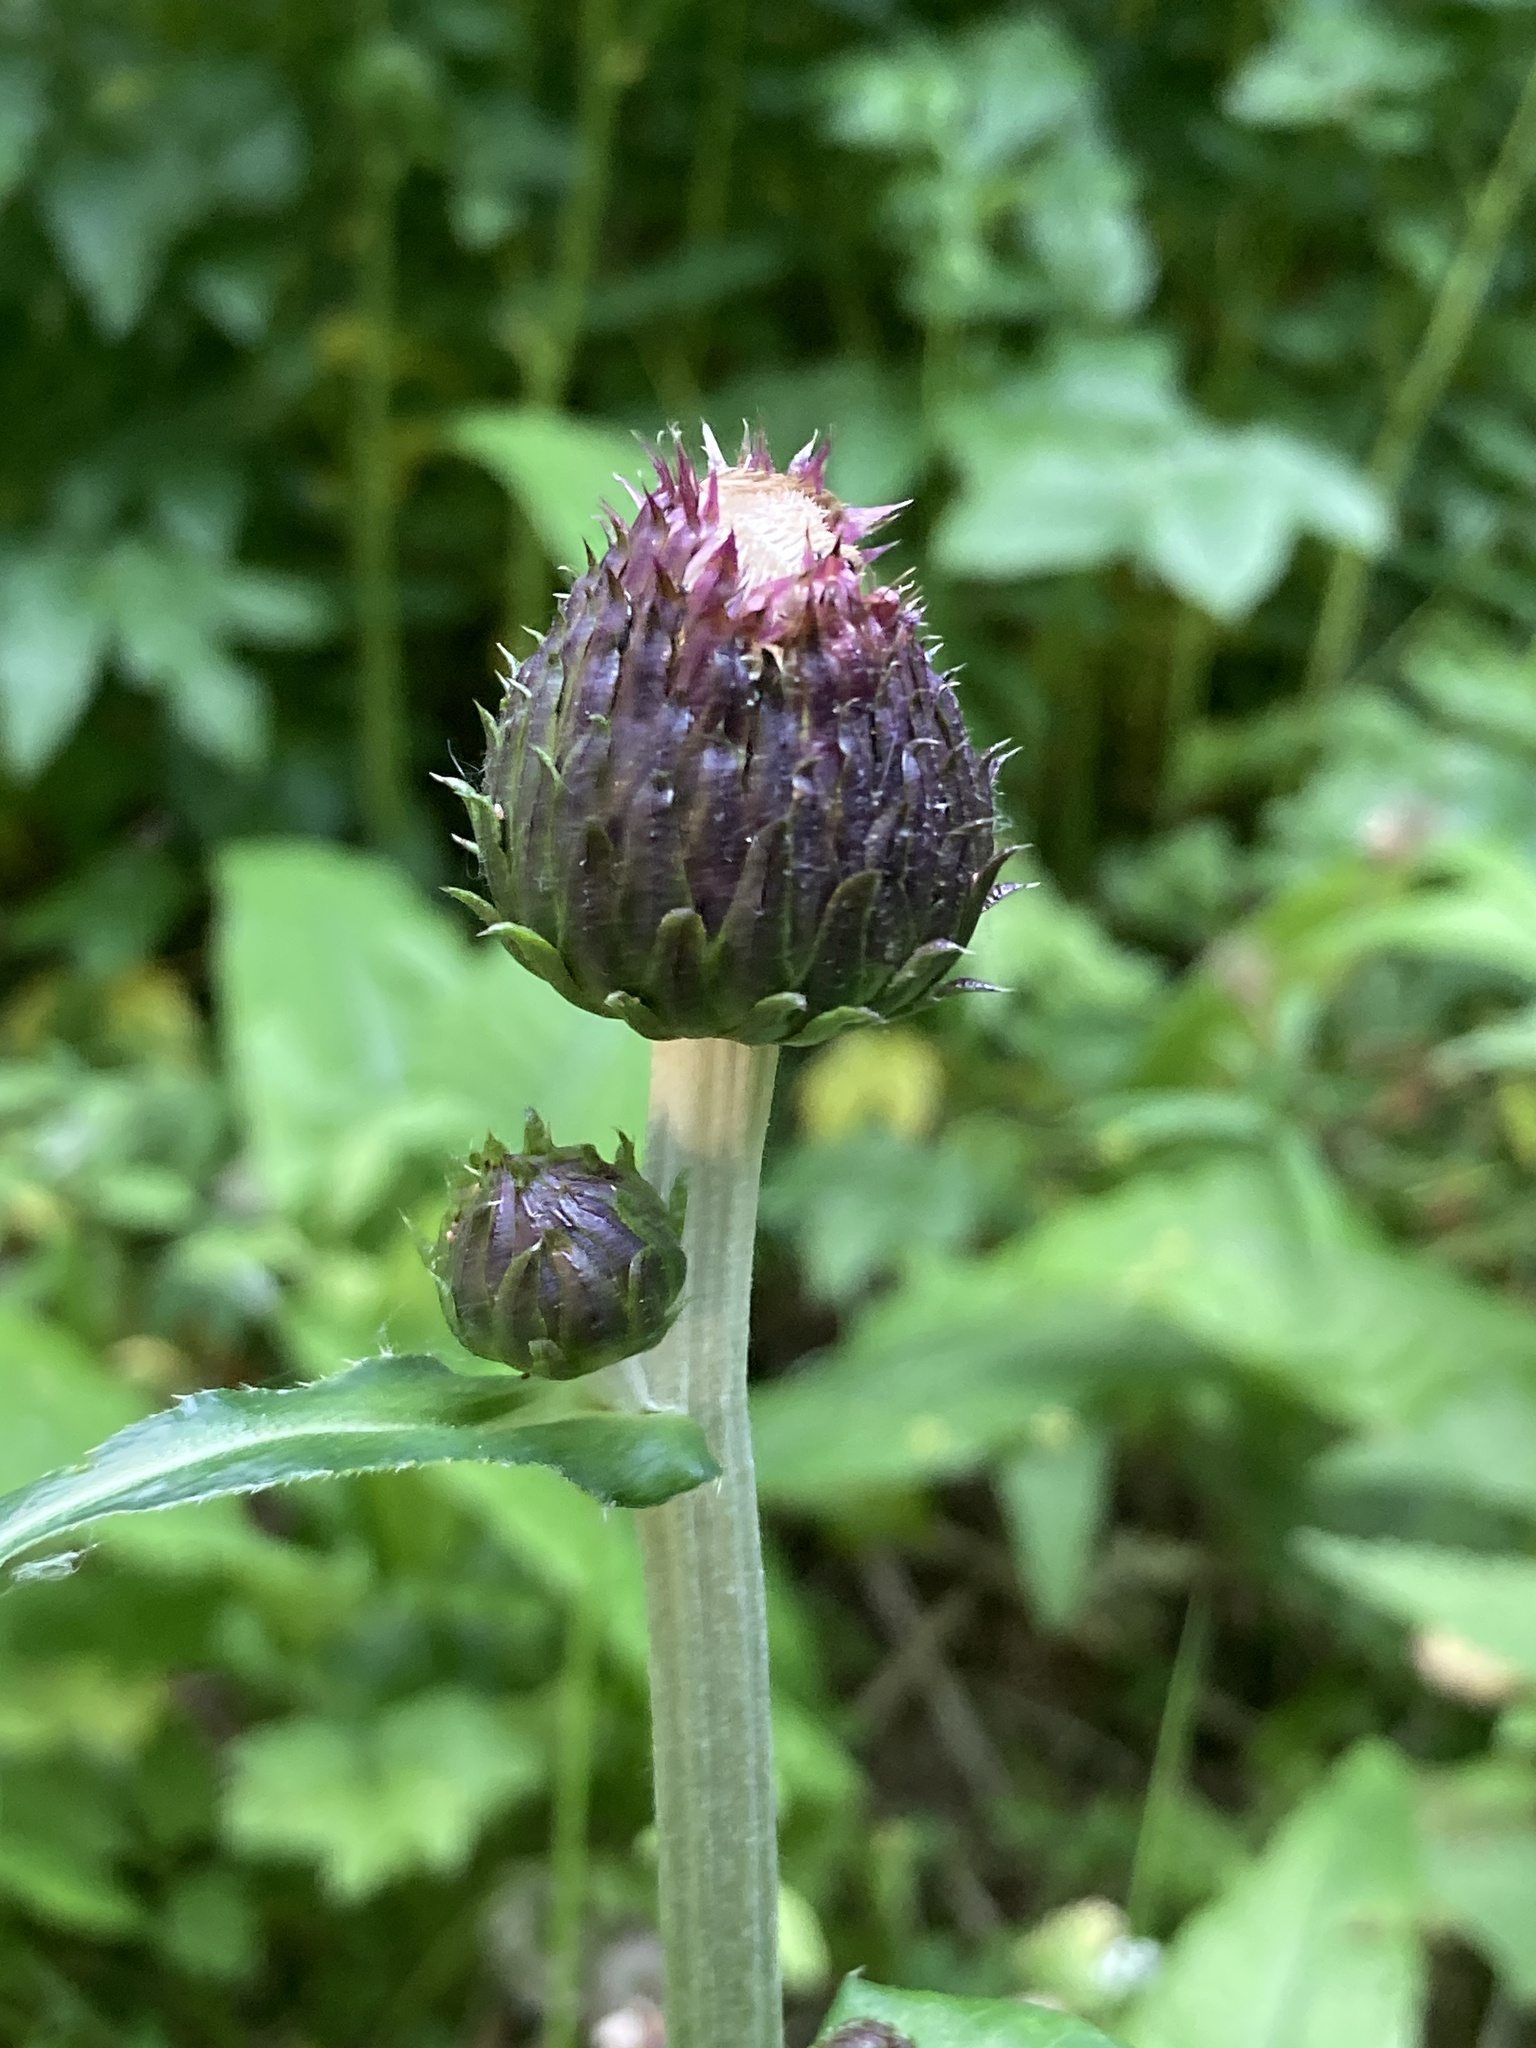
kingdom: Plantae
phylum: Tracheophyta
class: Magnoliopsida
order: Asterales
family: Asteraceae
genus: Cirsium
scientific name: Cirsium heterophyllum
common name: Melancholy thistle
